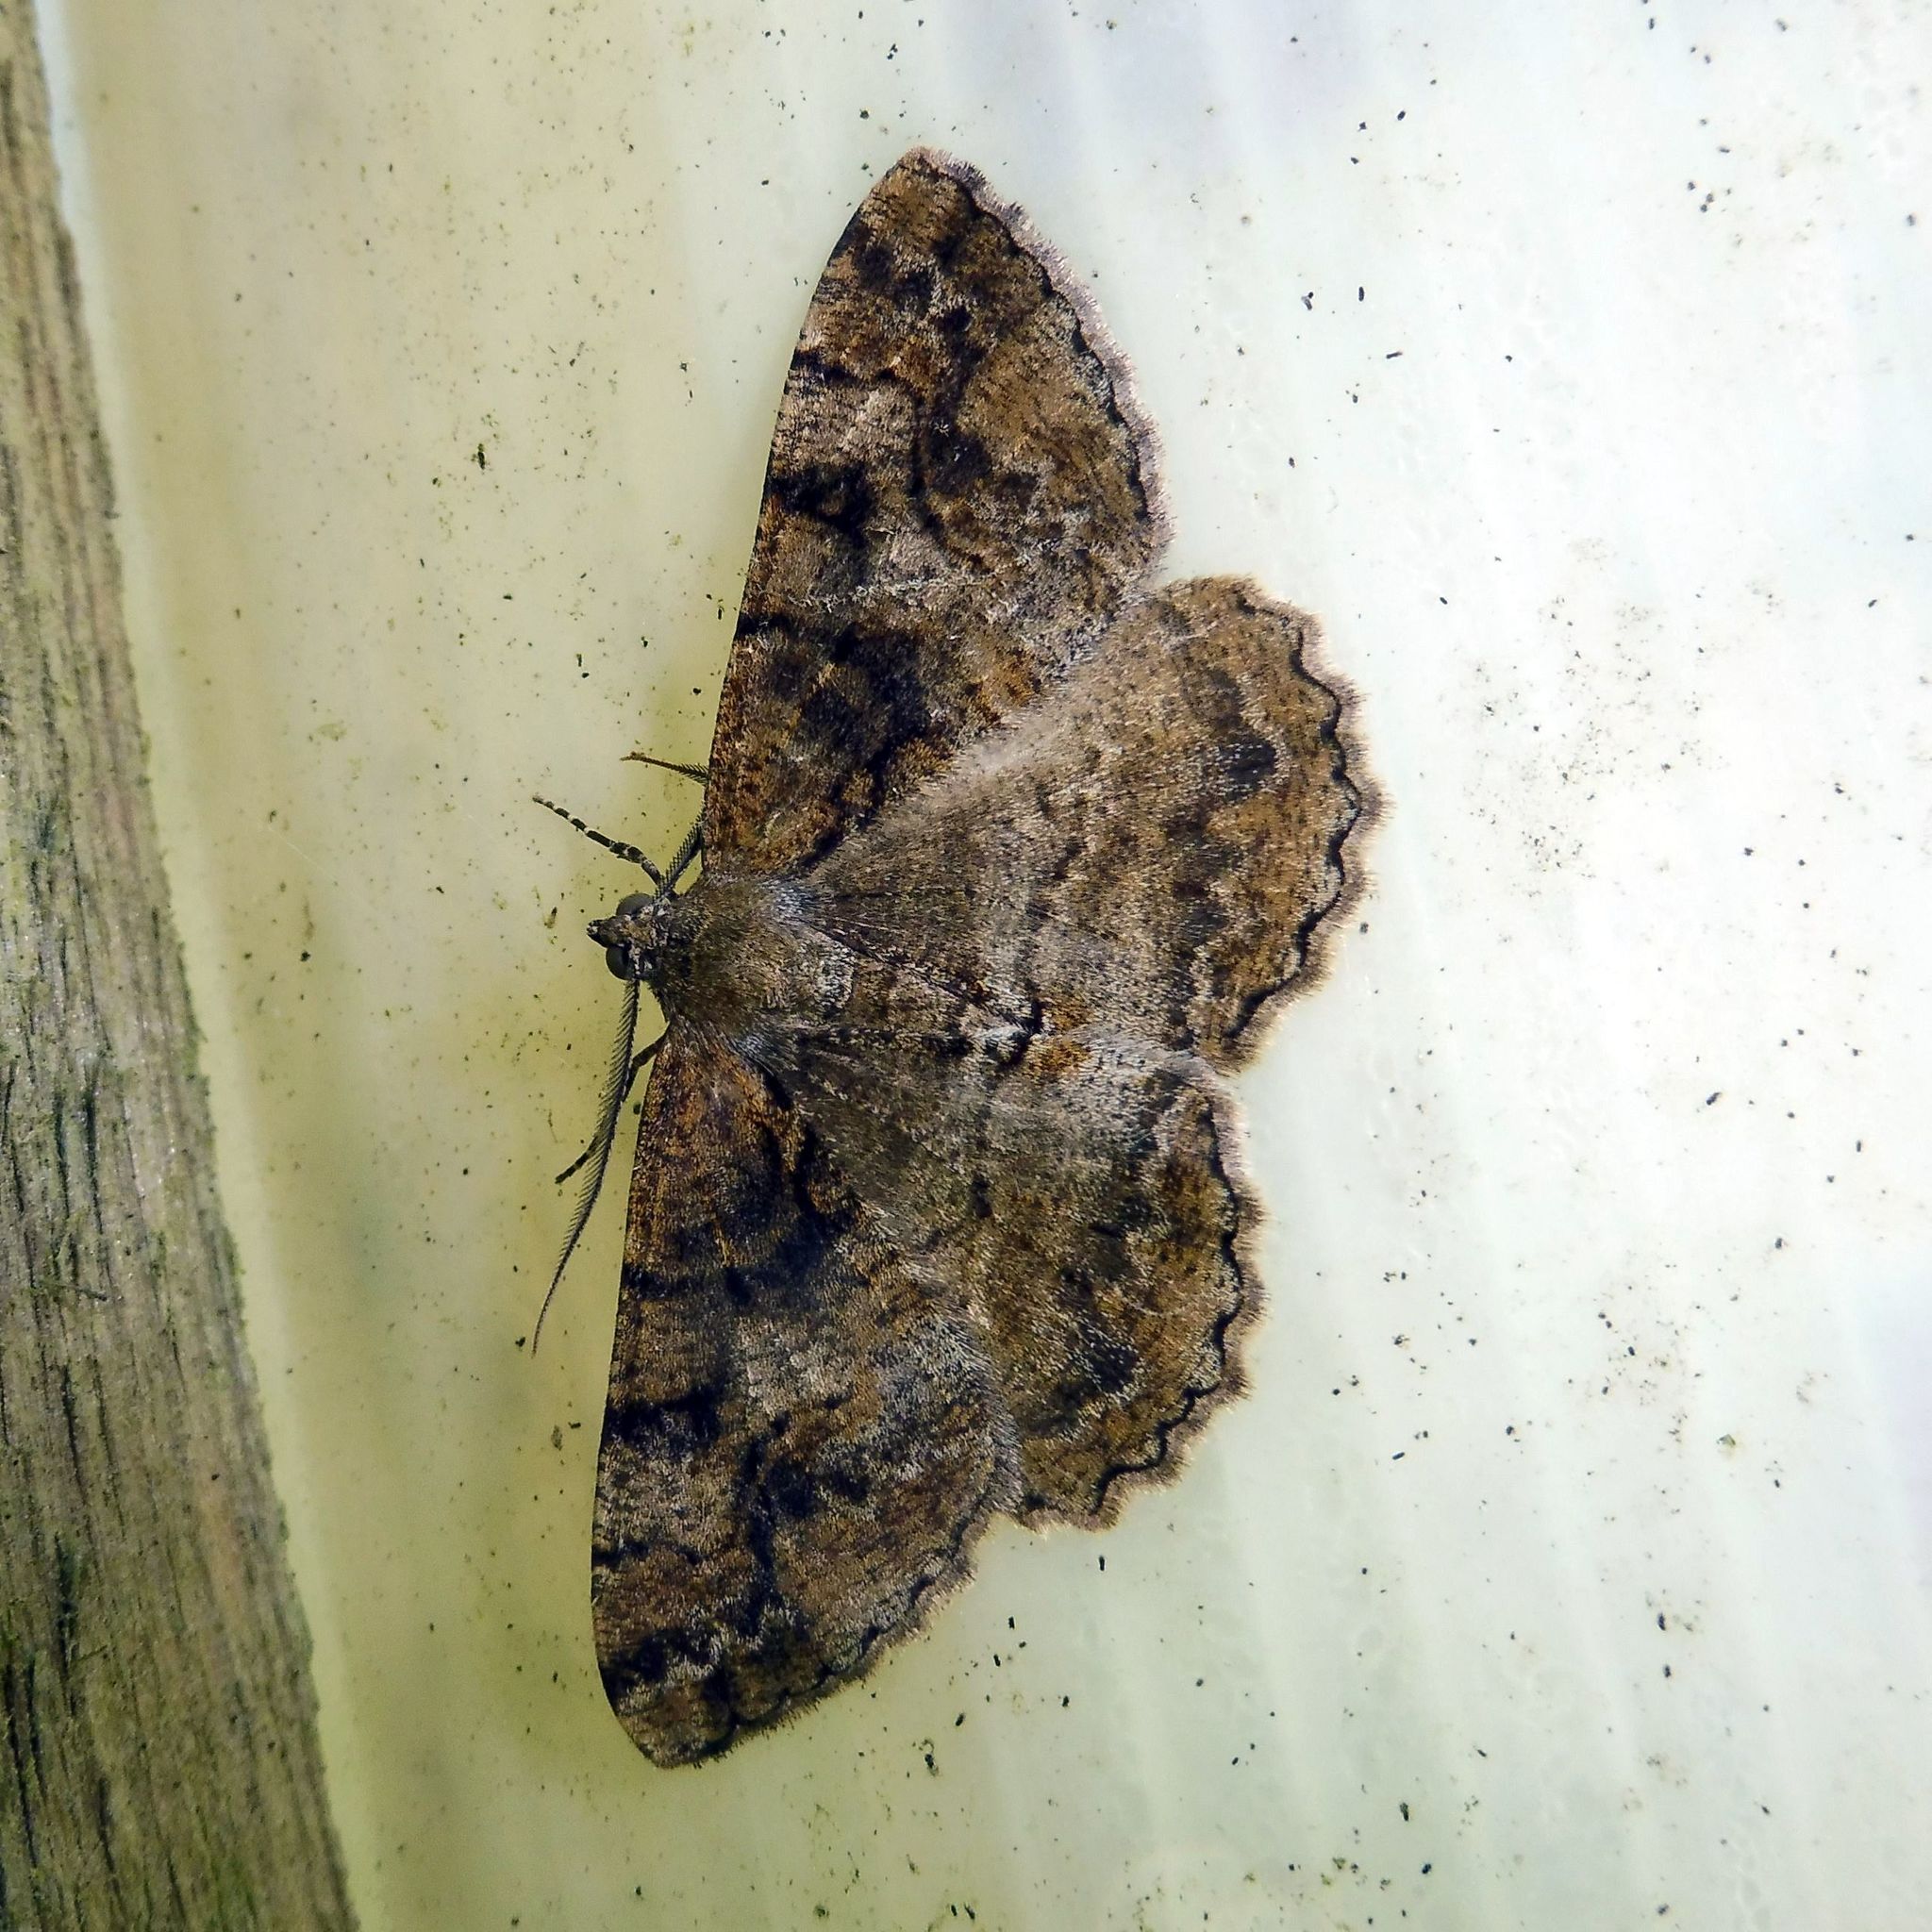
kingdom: Animalia
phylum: Arthropoda
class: Insecta
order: Lepidoptera
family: Geometridae
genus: Alcis
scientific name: Alcis repandata
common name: Mottled beauty
